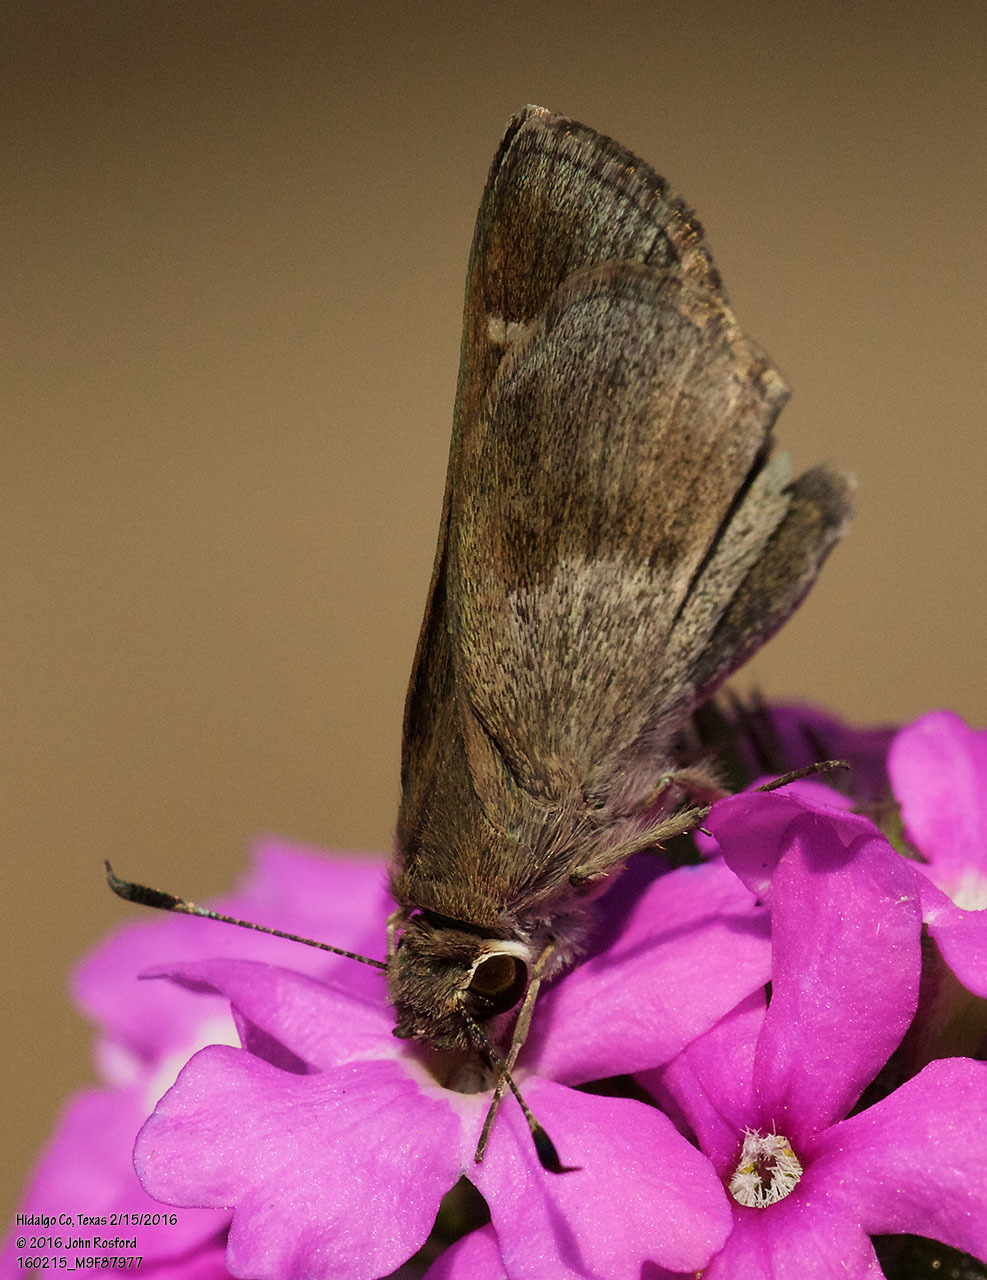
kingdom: Animalia
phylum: Arthropoda
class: Insecta
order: Lepidoptera
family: Hesperiidae
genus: Lerodea
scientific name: Lerodea arabus
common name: Violet-clouded skipper
